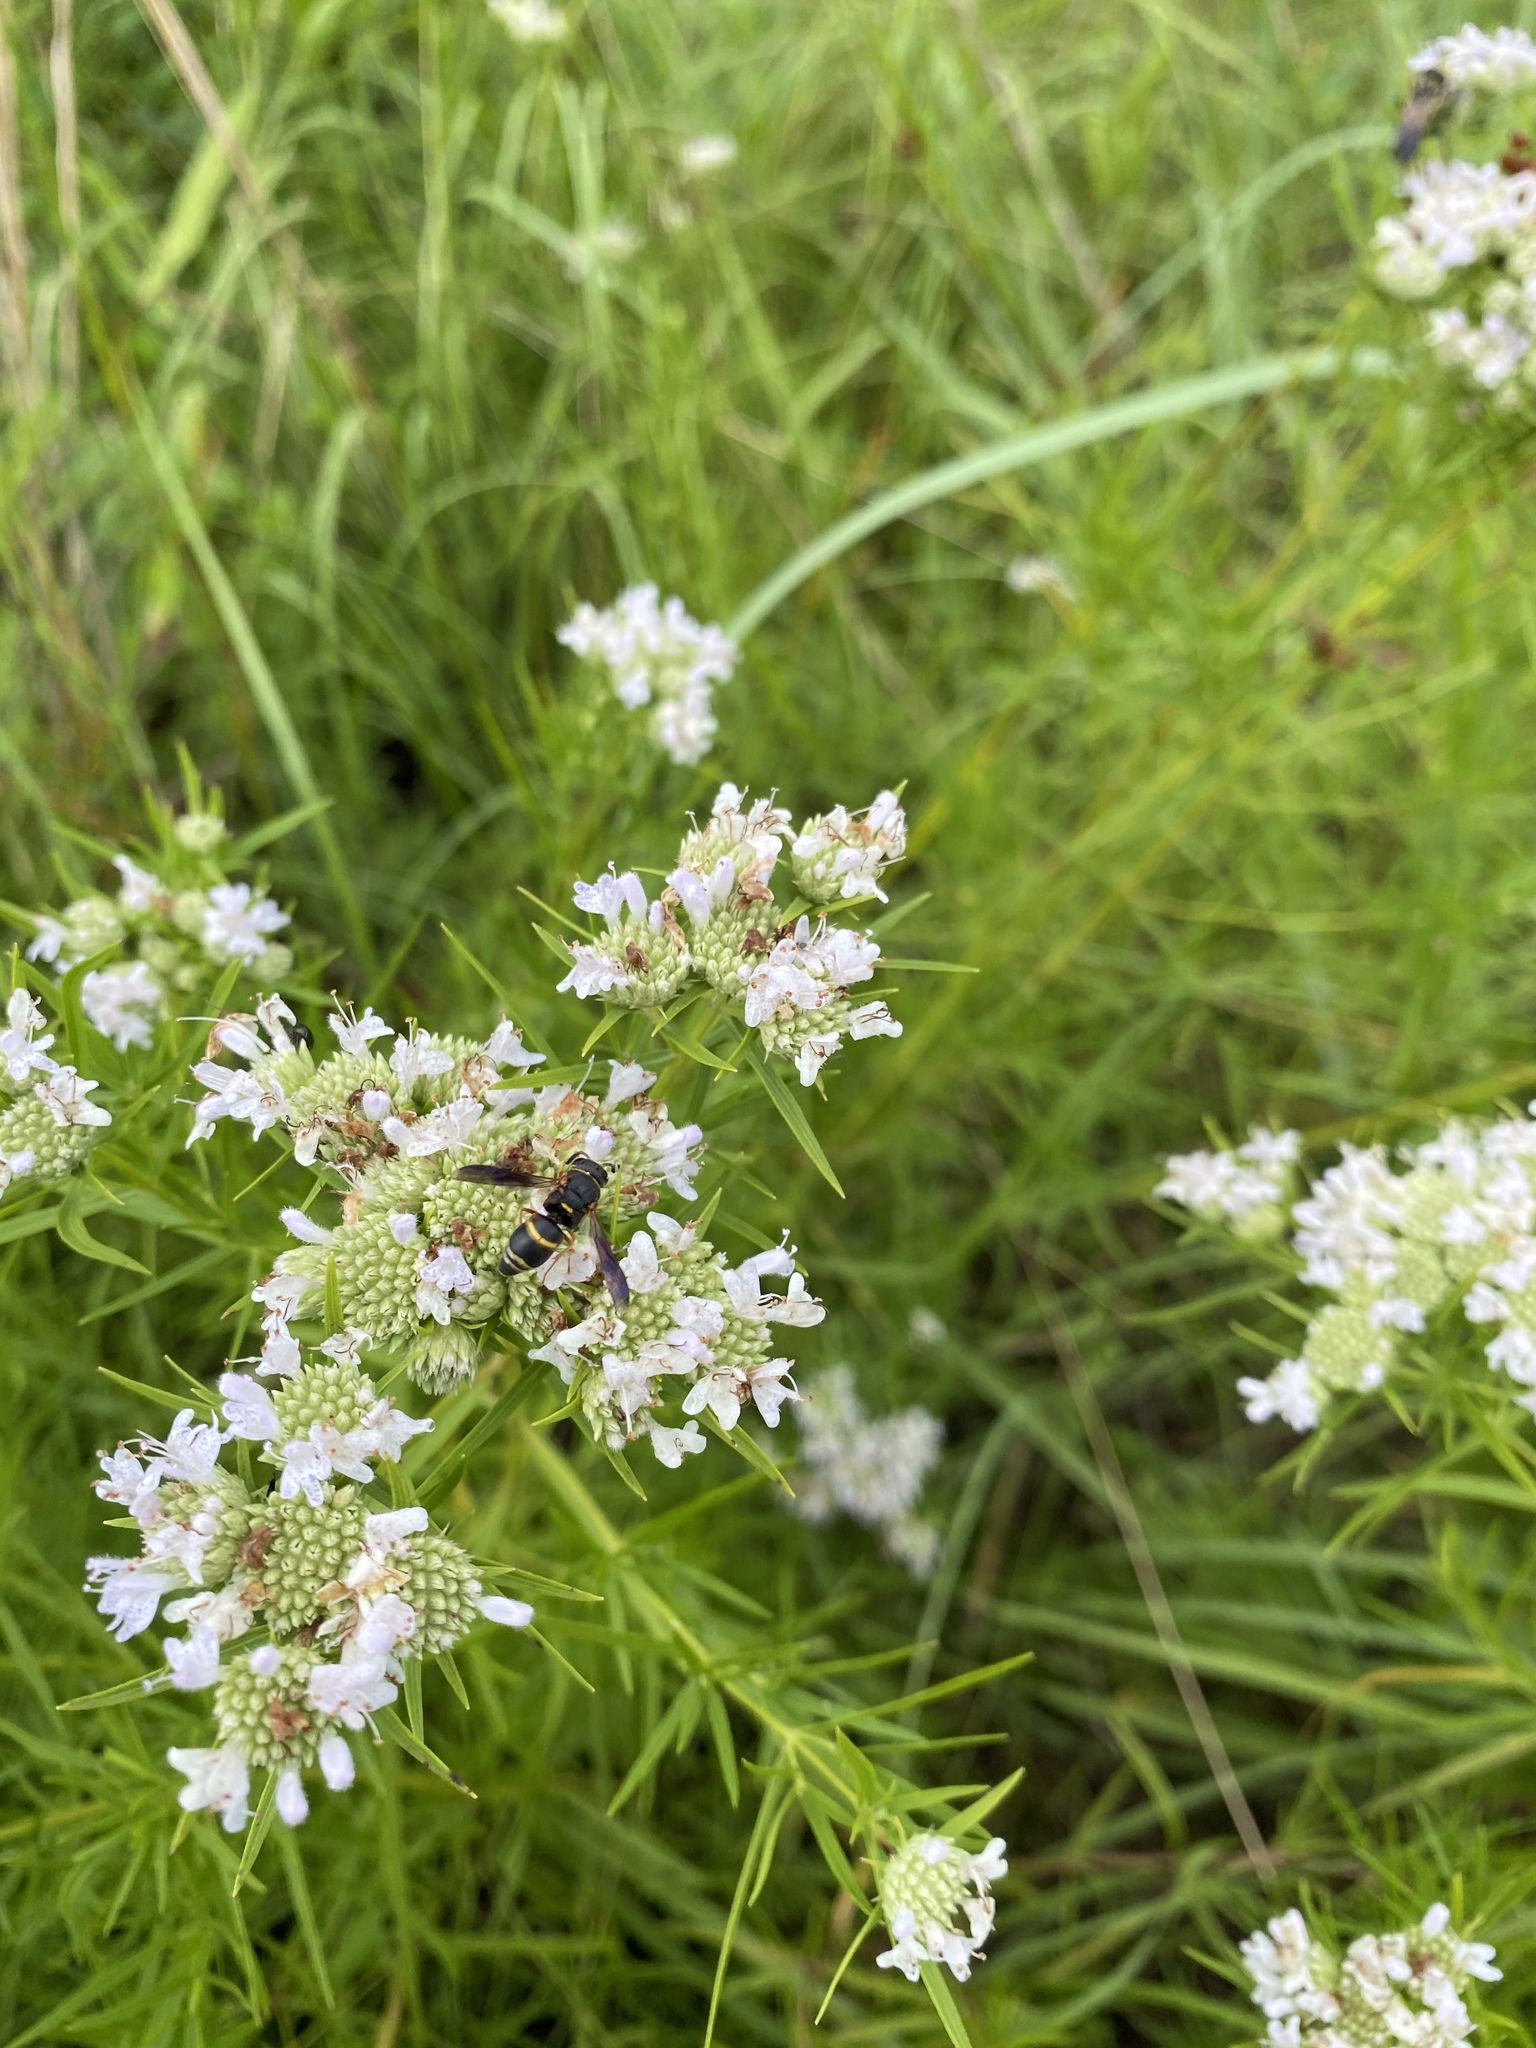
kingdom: Plantae
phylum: Tracheophyta
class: Magnoliopsida
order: Lamiales
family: Lamiaceae
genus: Pycnanthemum
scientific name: Pycnanthemum tenuifolium
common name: Narrow-leaf mountain-mint
